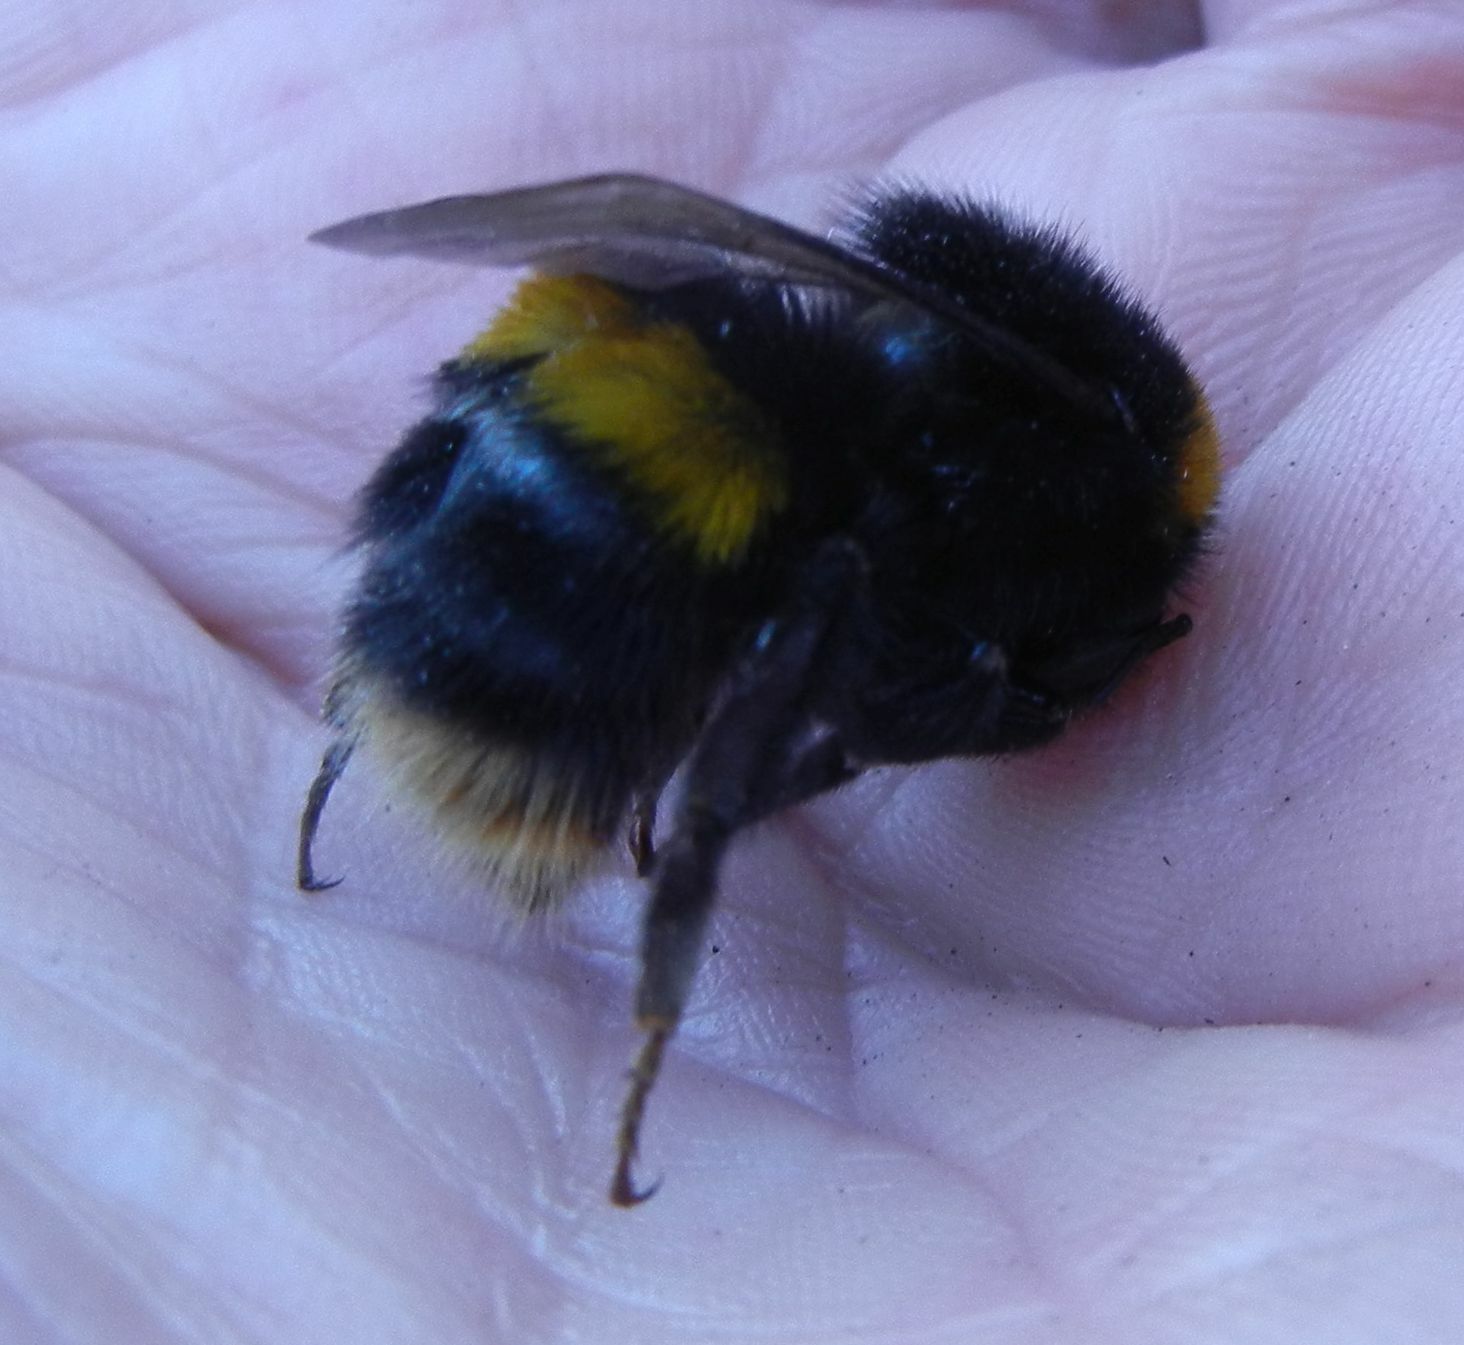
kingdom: Animalia
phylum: Arthropoda
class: Insecta
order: Hymenoptera
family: Apidae
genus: Bombus
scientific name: Bombus terrestris
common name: Buff-tailed bumblebee
